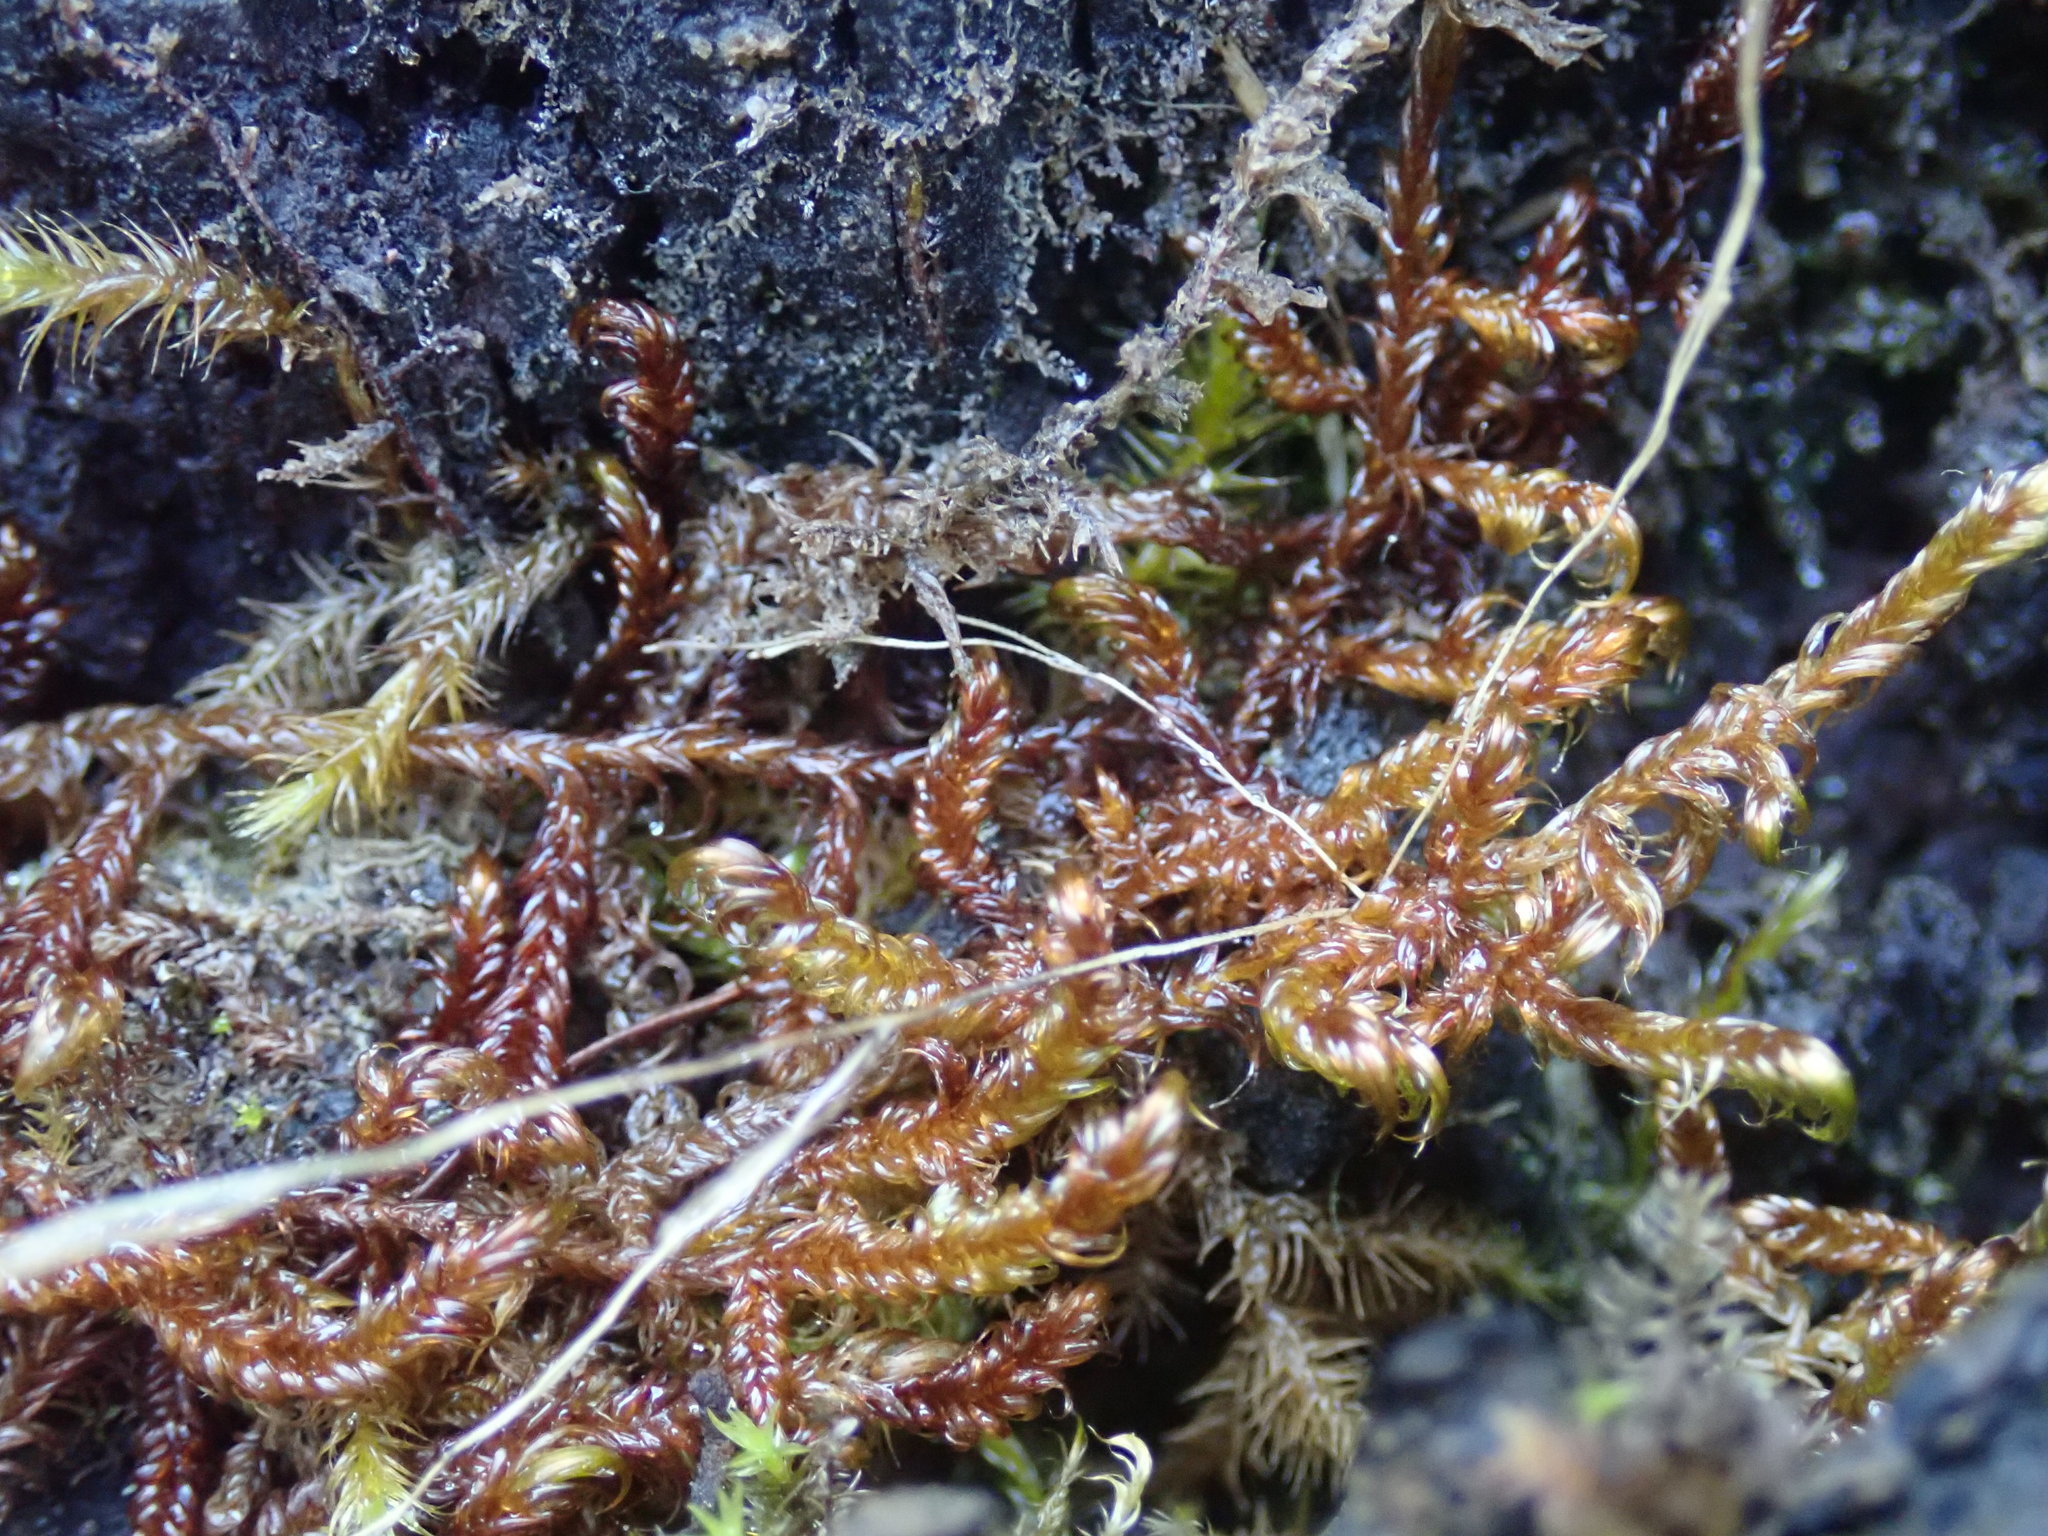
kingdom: Plantae
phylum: Bryophyta
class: Bryopsida
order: Hypnales
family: Scorpidiaceae
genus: Scorpidium
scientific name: Scorpidium revolvens
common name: Rusty hook moss
